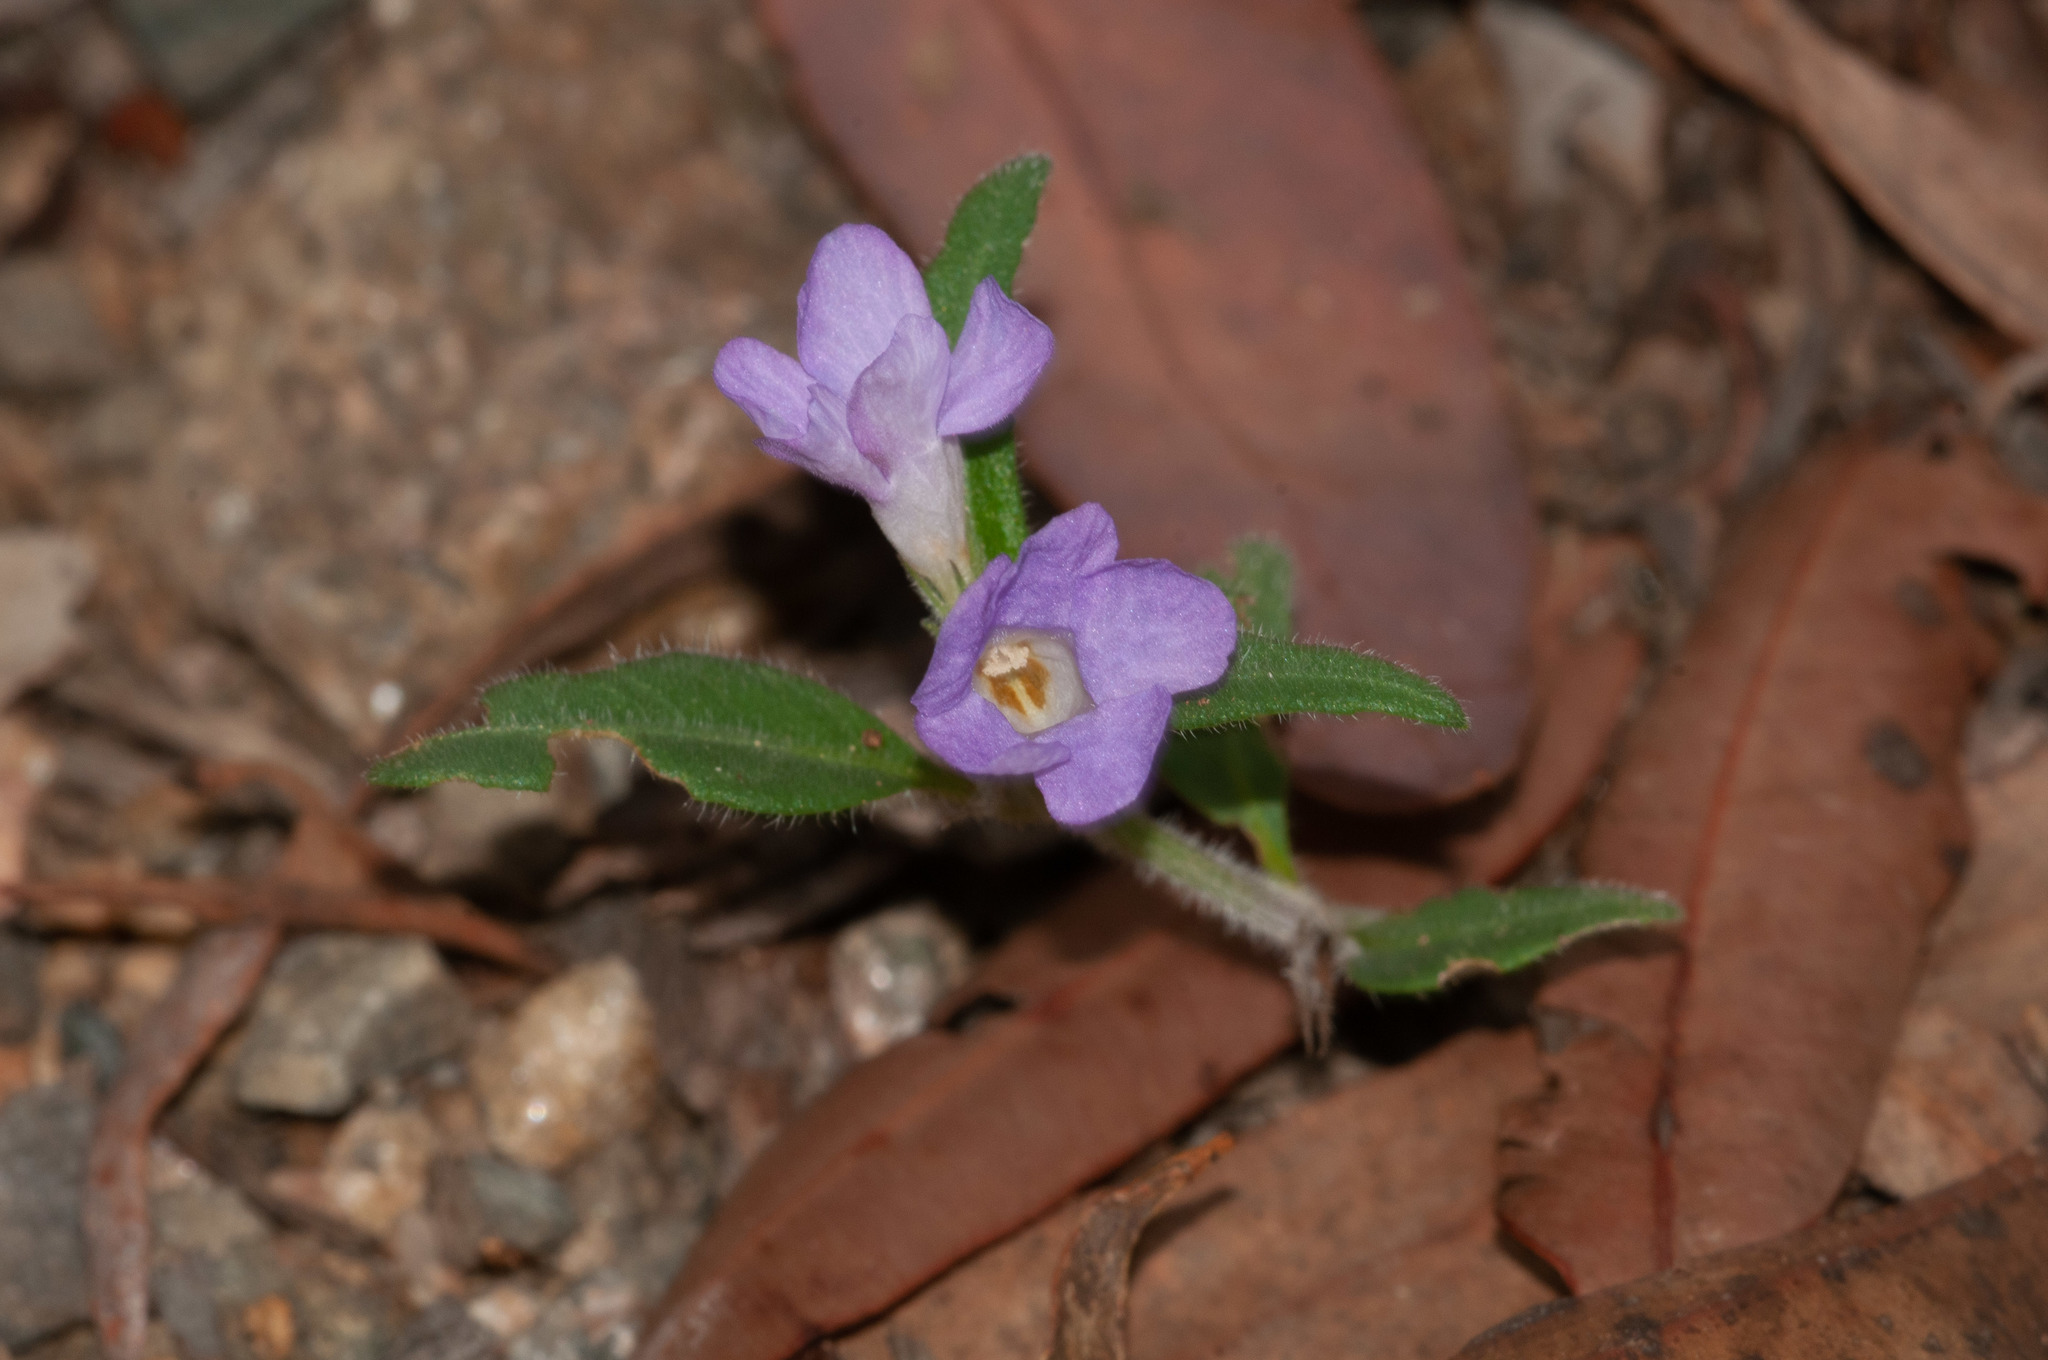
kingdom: Plantae
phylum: Tracheophyta
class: Magnoliopsida
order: Lamiales
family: Acanthaceae
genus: Brunoniella
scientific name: Brunoniella australis
